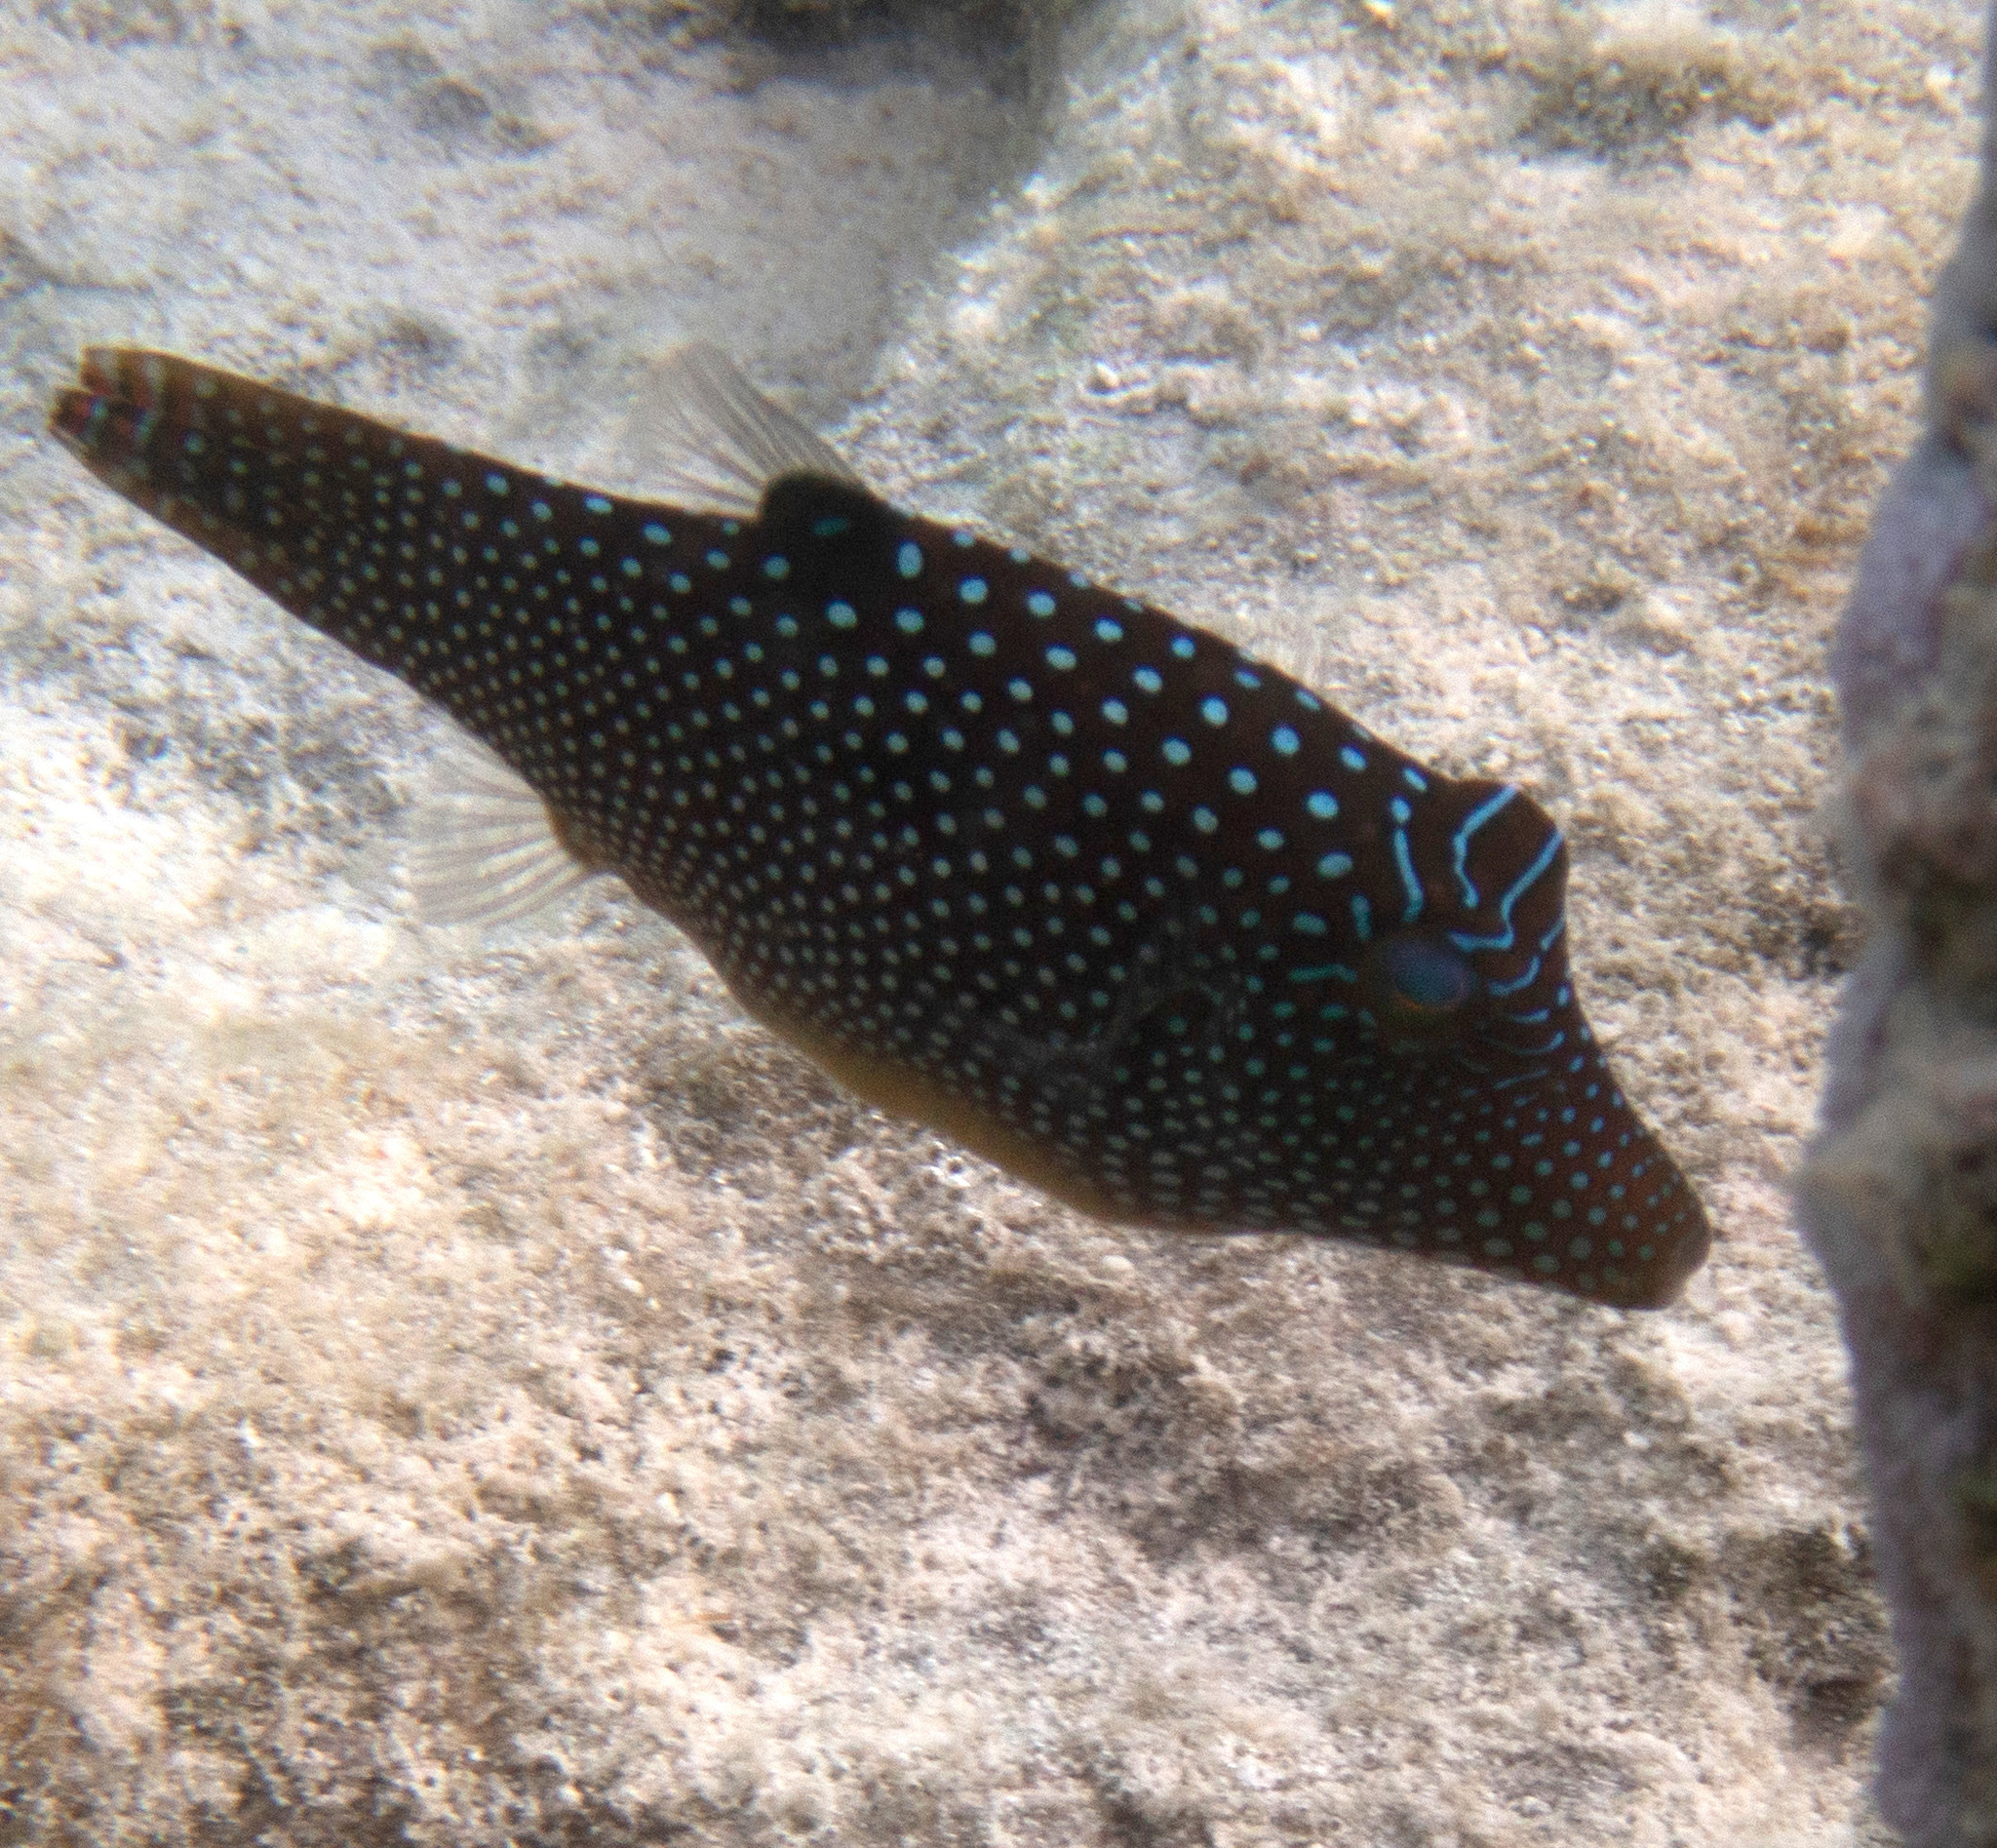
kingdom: Animalia
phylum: Chordata
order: Tetraodontiformes
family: Tetraodontidae
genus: Canthigaster
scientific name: Canthigaster solandri
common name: False-eye toby
